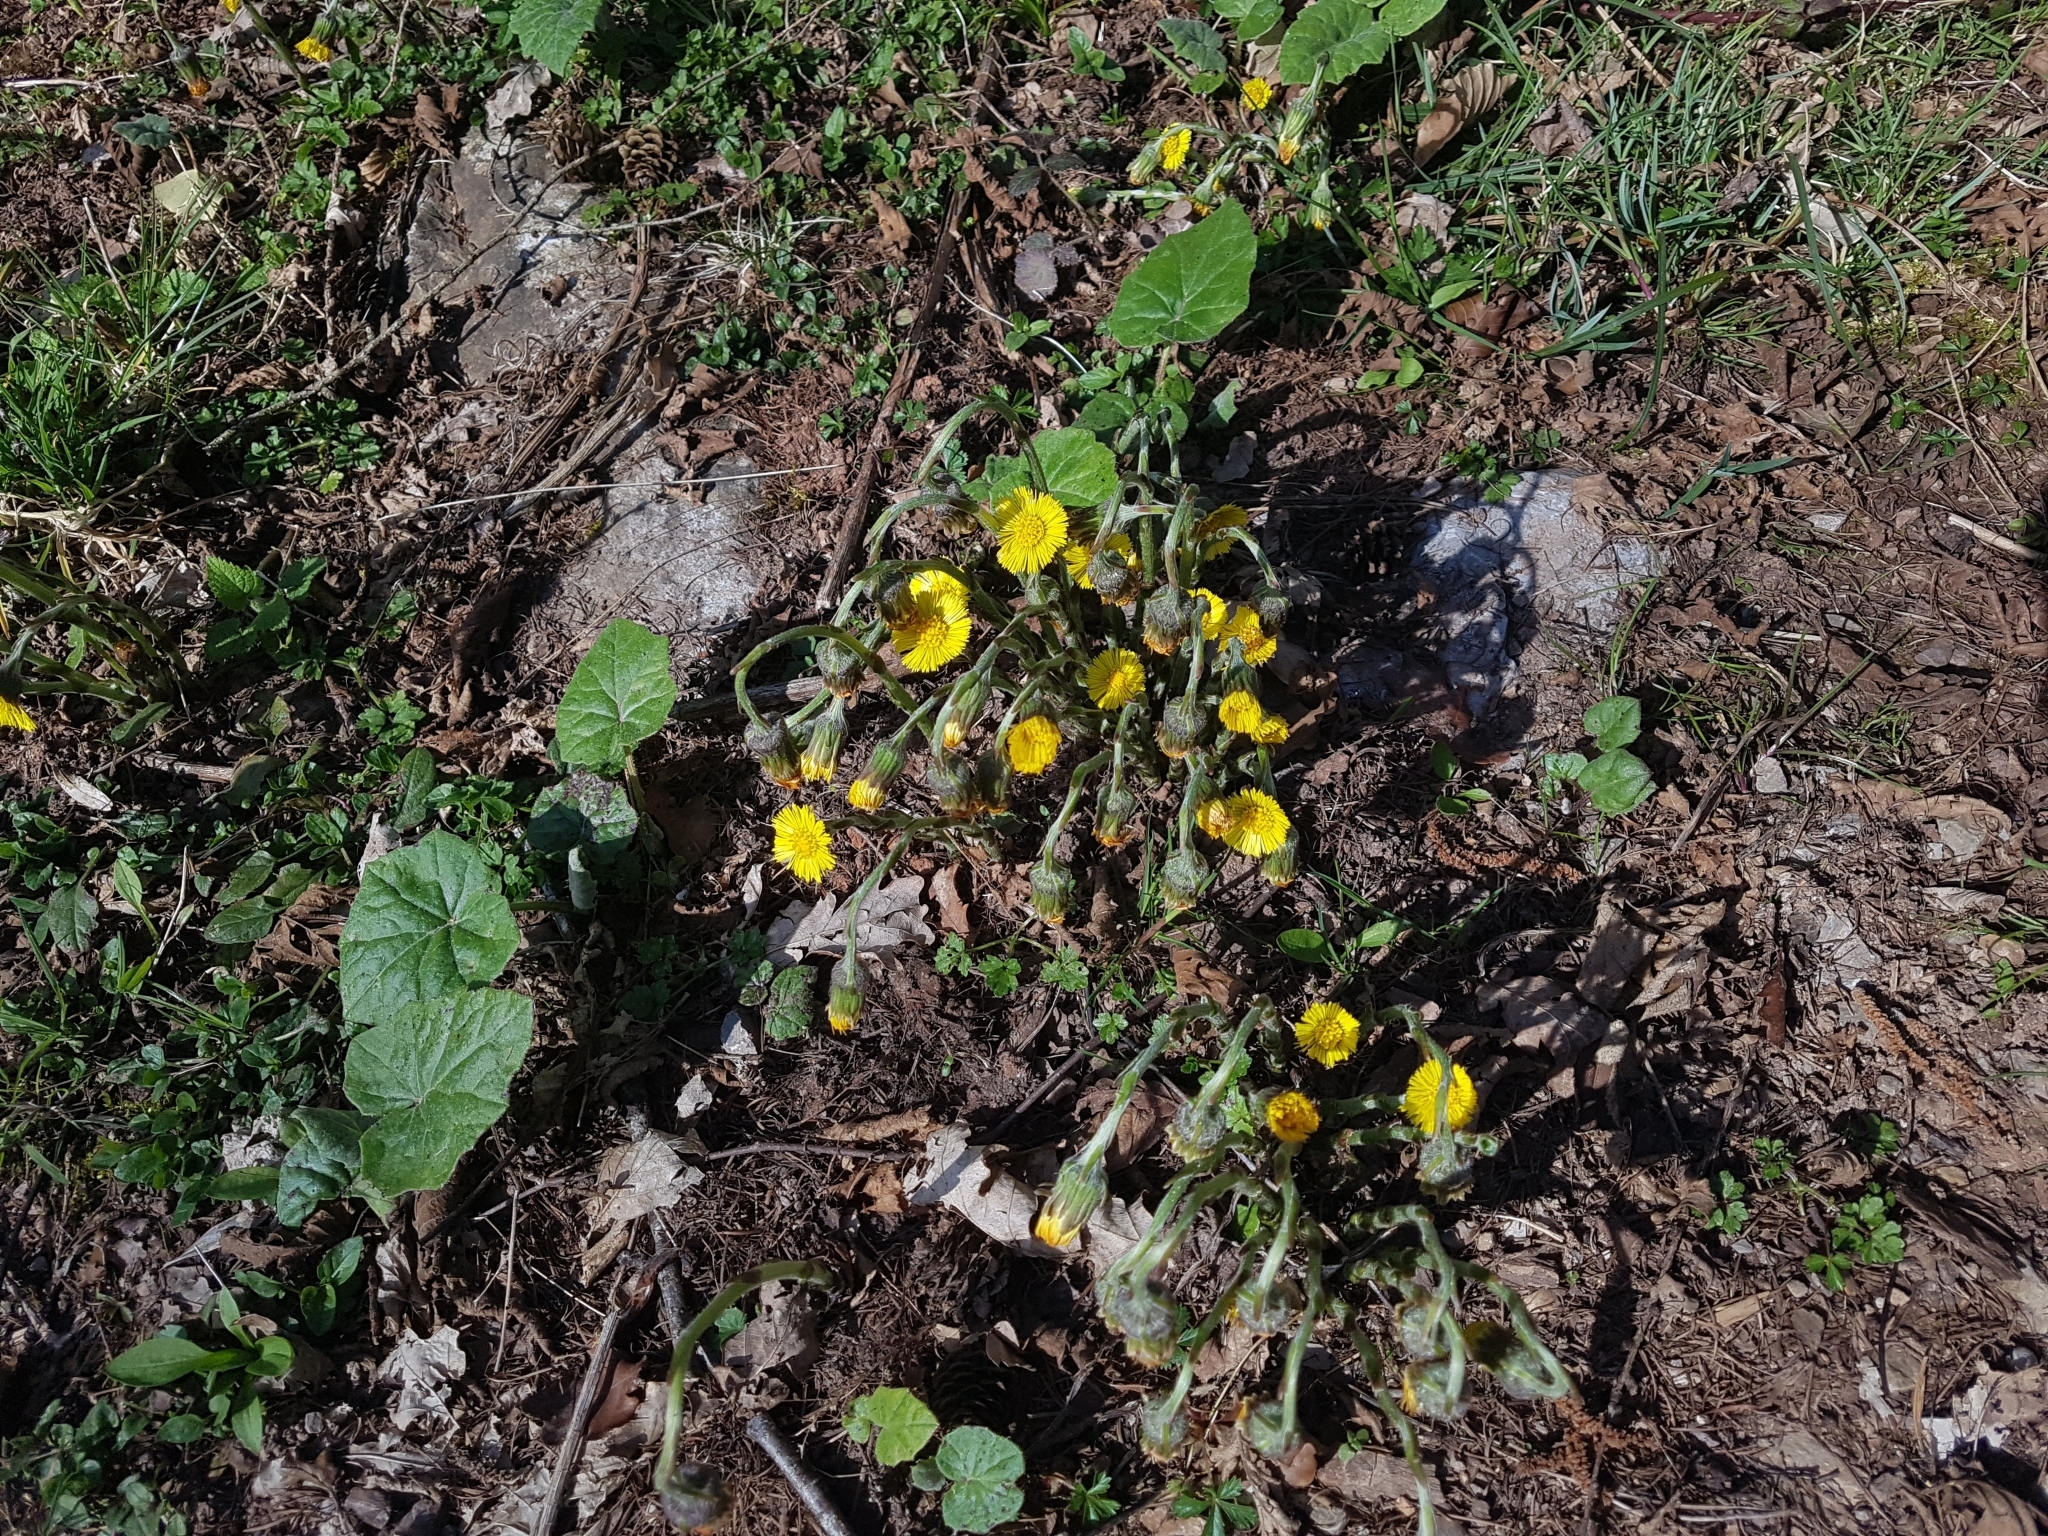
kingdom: Plantae
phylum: Tracheophyta
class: Magnoliopsida
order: Asterales
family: Asteraceae
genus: Tussilago
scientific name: Tussilago farfara
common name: Coltsfoot
